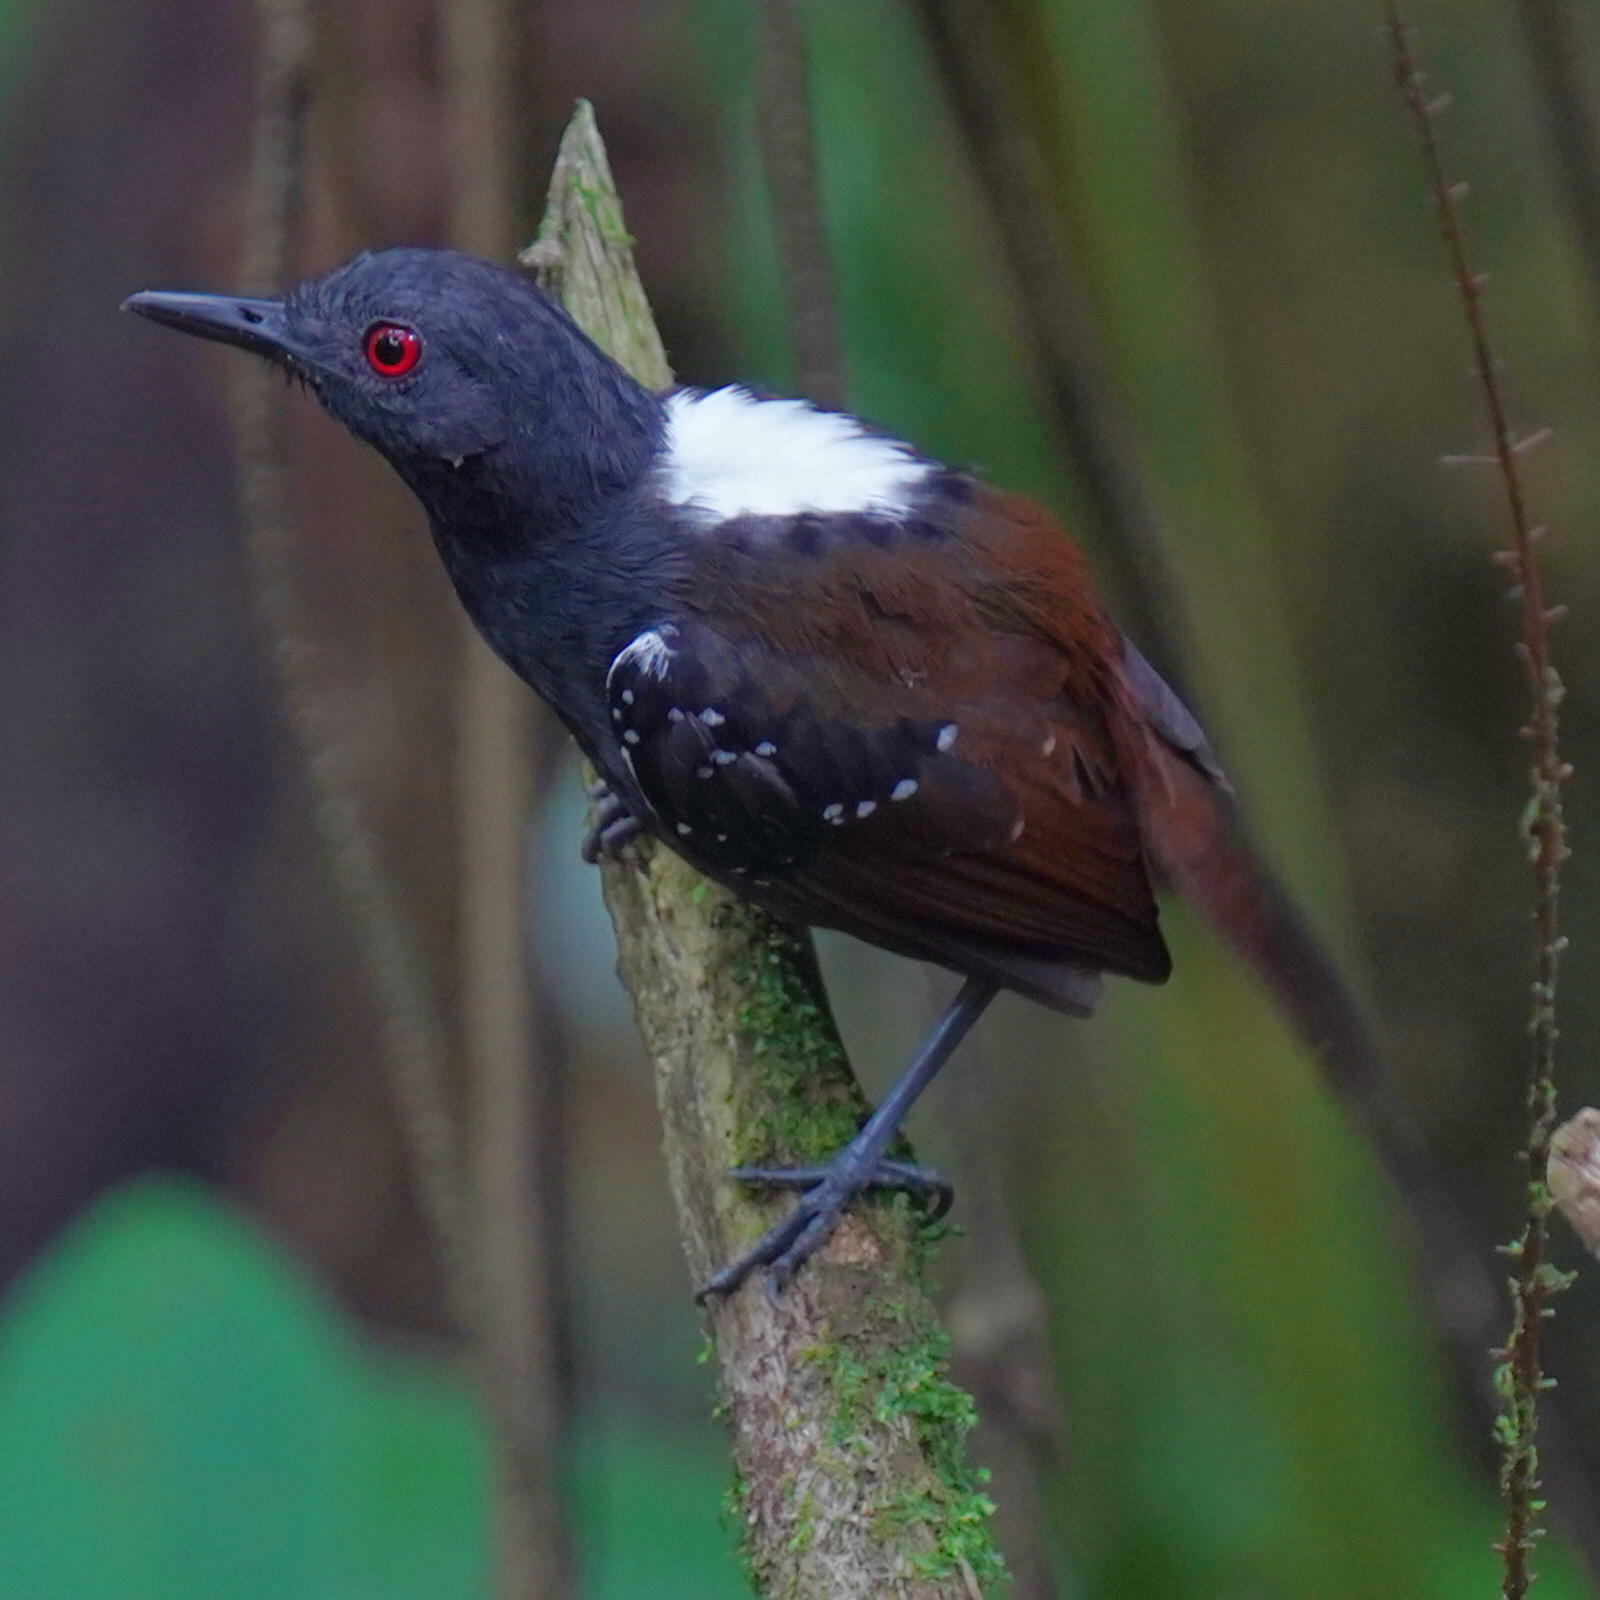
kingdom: Animalia
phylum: Chordata
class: Aves
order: Passeriformes
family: Thamnophilidae
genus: Sipia
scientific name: Sipia laemosticta
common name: Dull-mantled antbird
